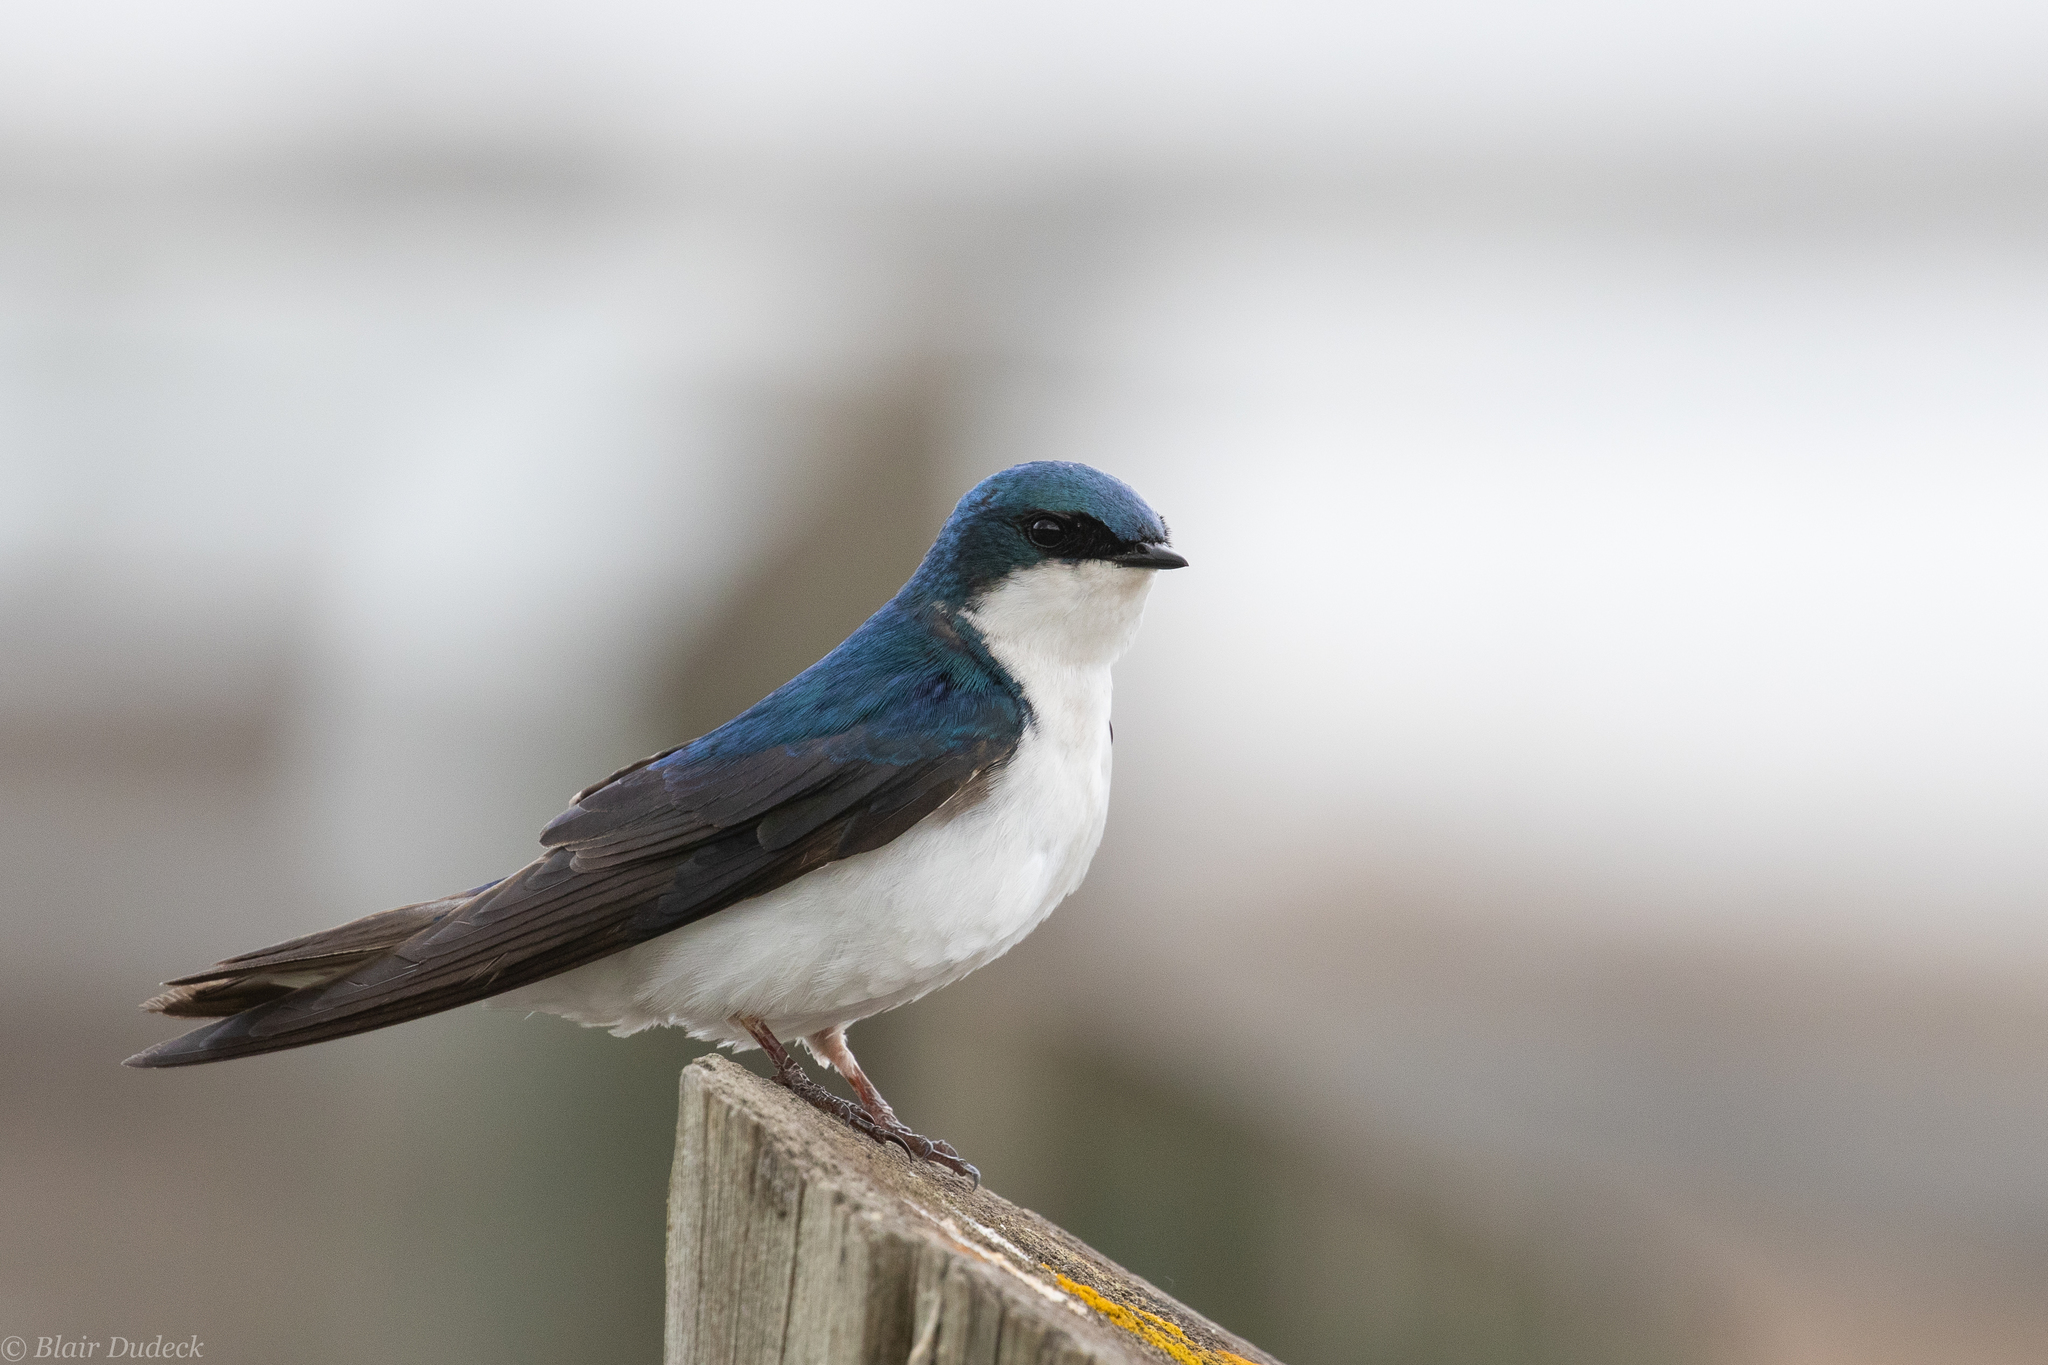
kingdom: Animalia
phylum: Chordata
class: Aves
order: Passeriformes
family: Hirundinidae
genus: Tachycineta
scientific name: Tachycineta bicolor
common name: Tree swallow
